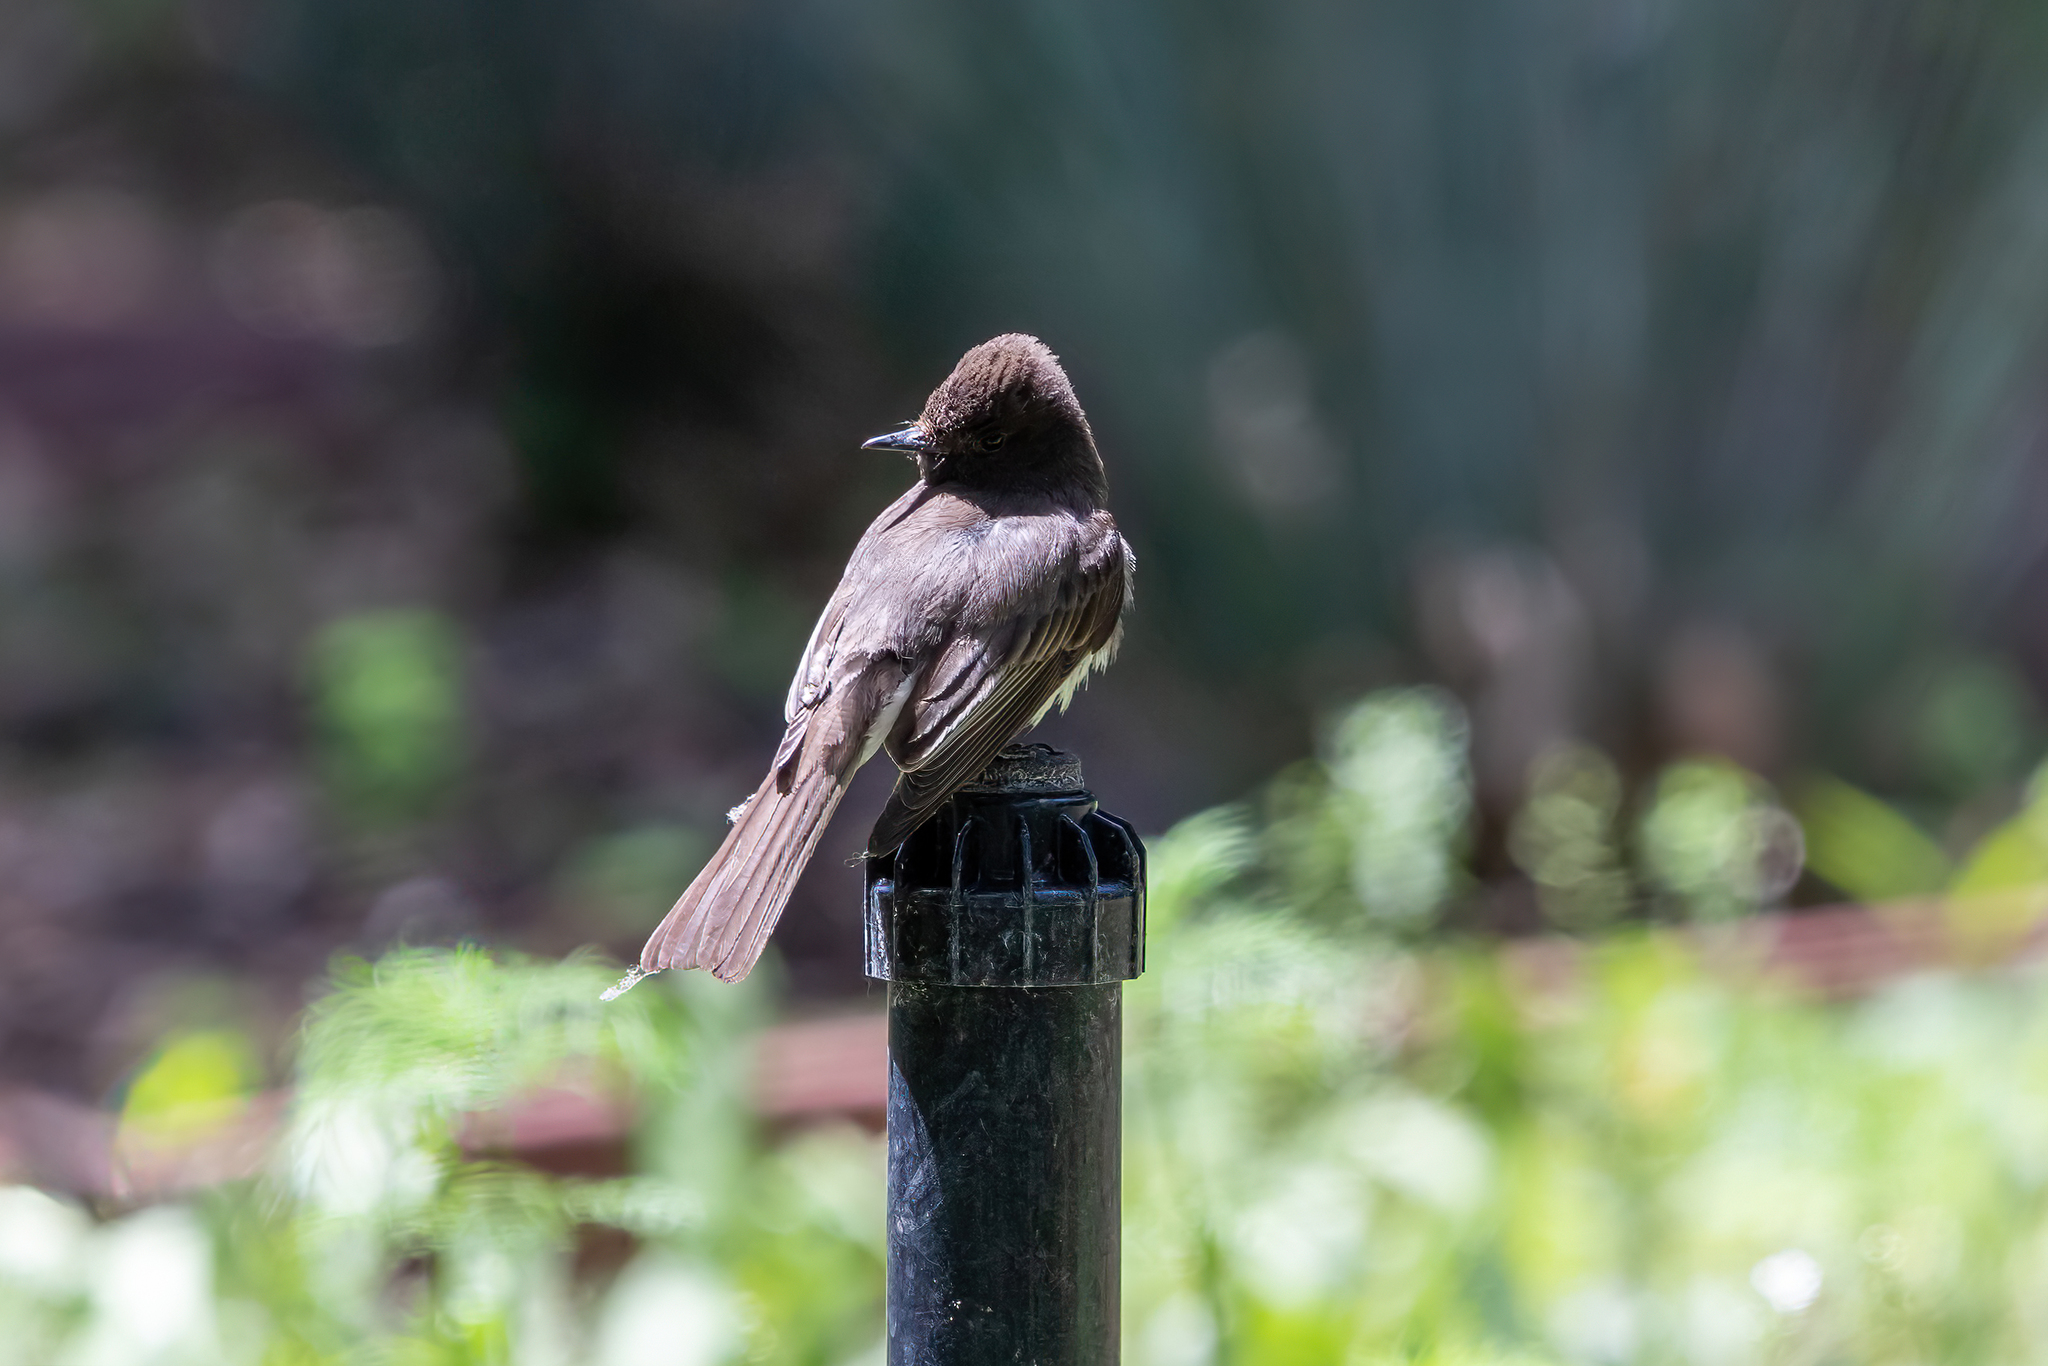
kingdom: Animalia
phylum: Chordata
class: Aves
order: Passeriformes
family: Tyrannidae
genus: Sayornis
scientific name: Sayornis nigricans
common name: Black phoebe
